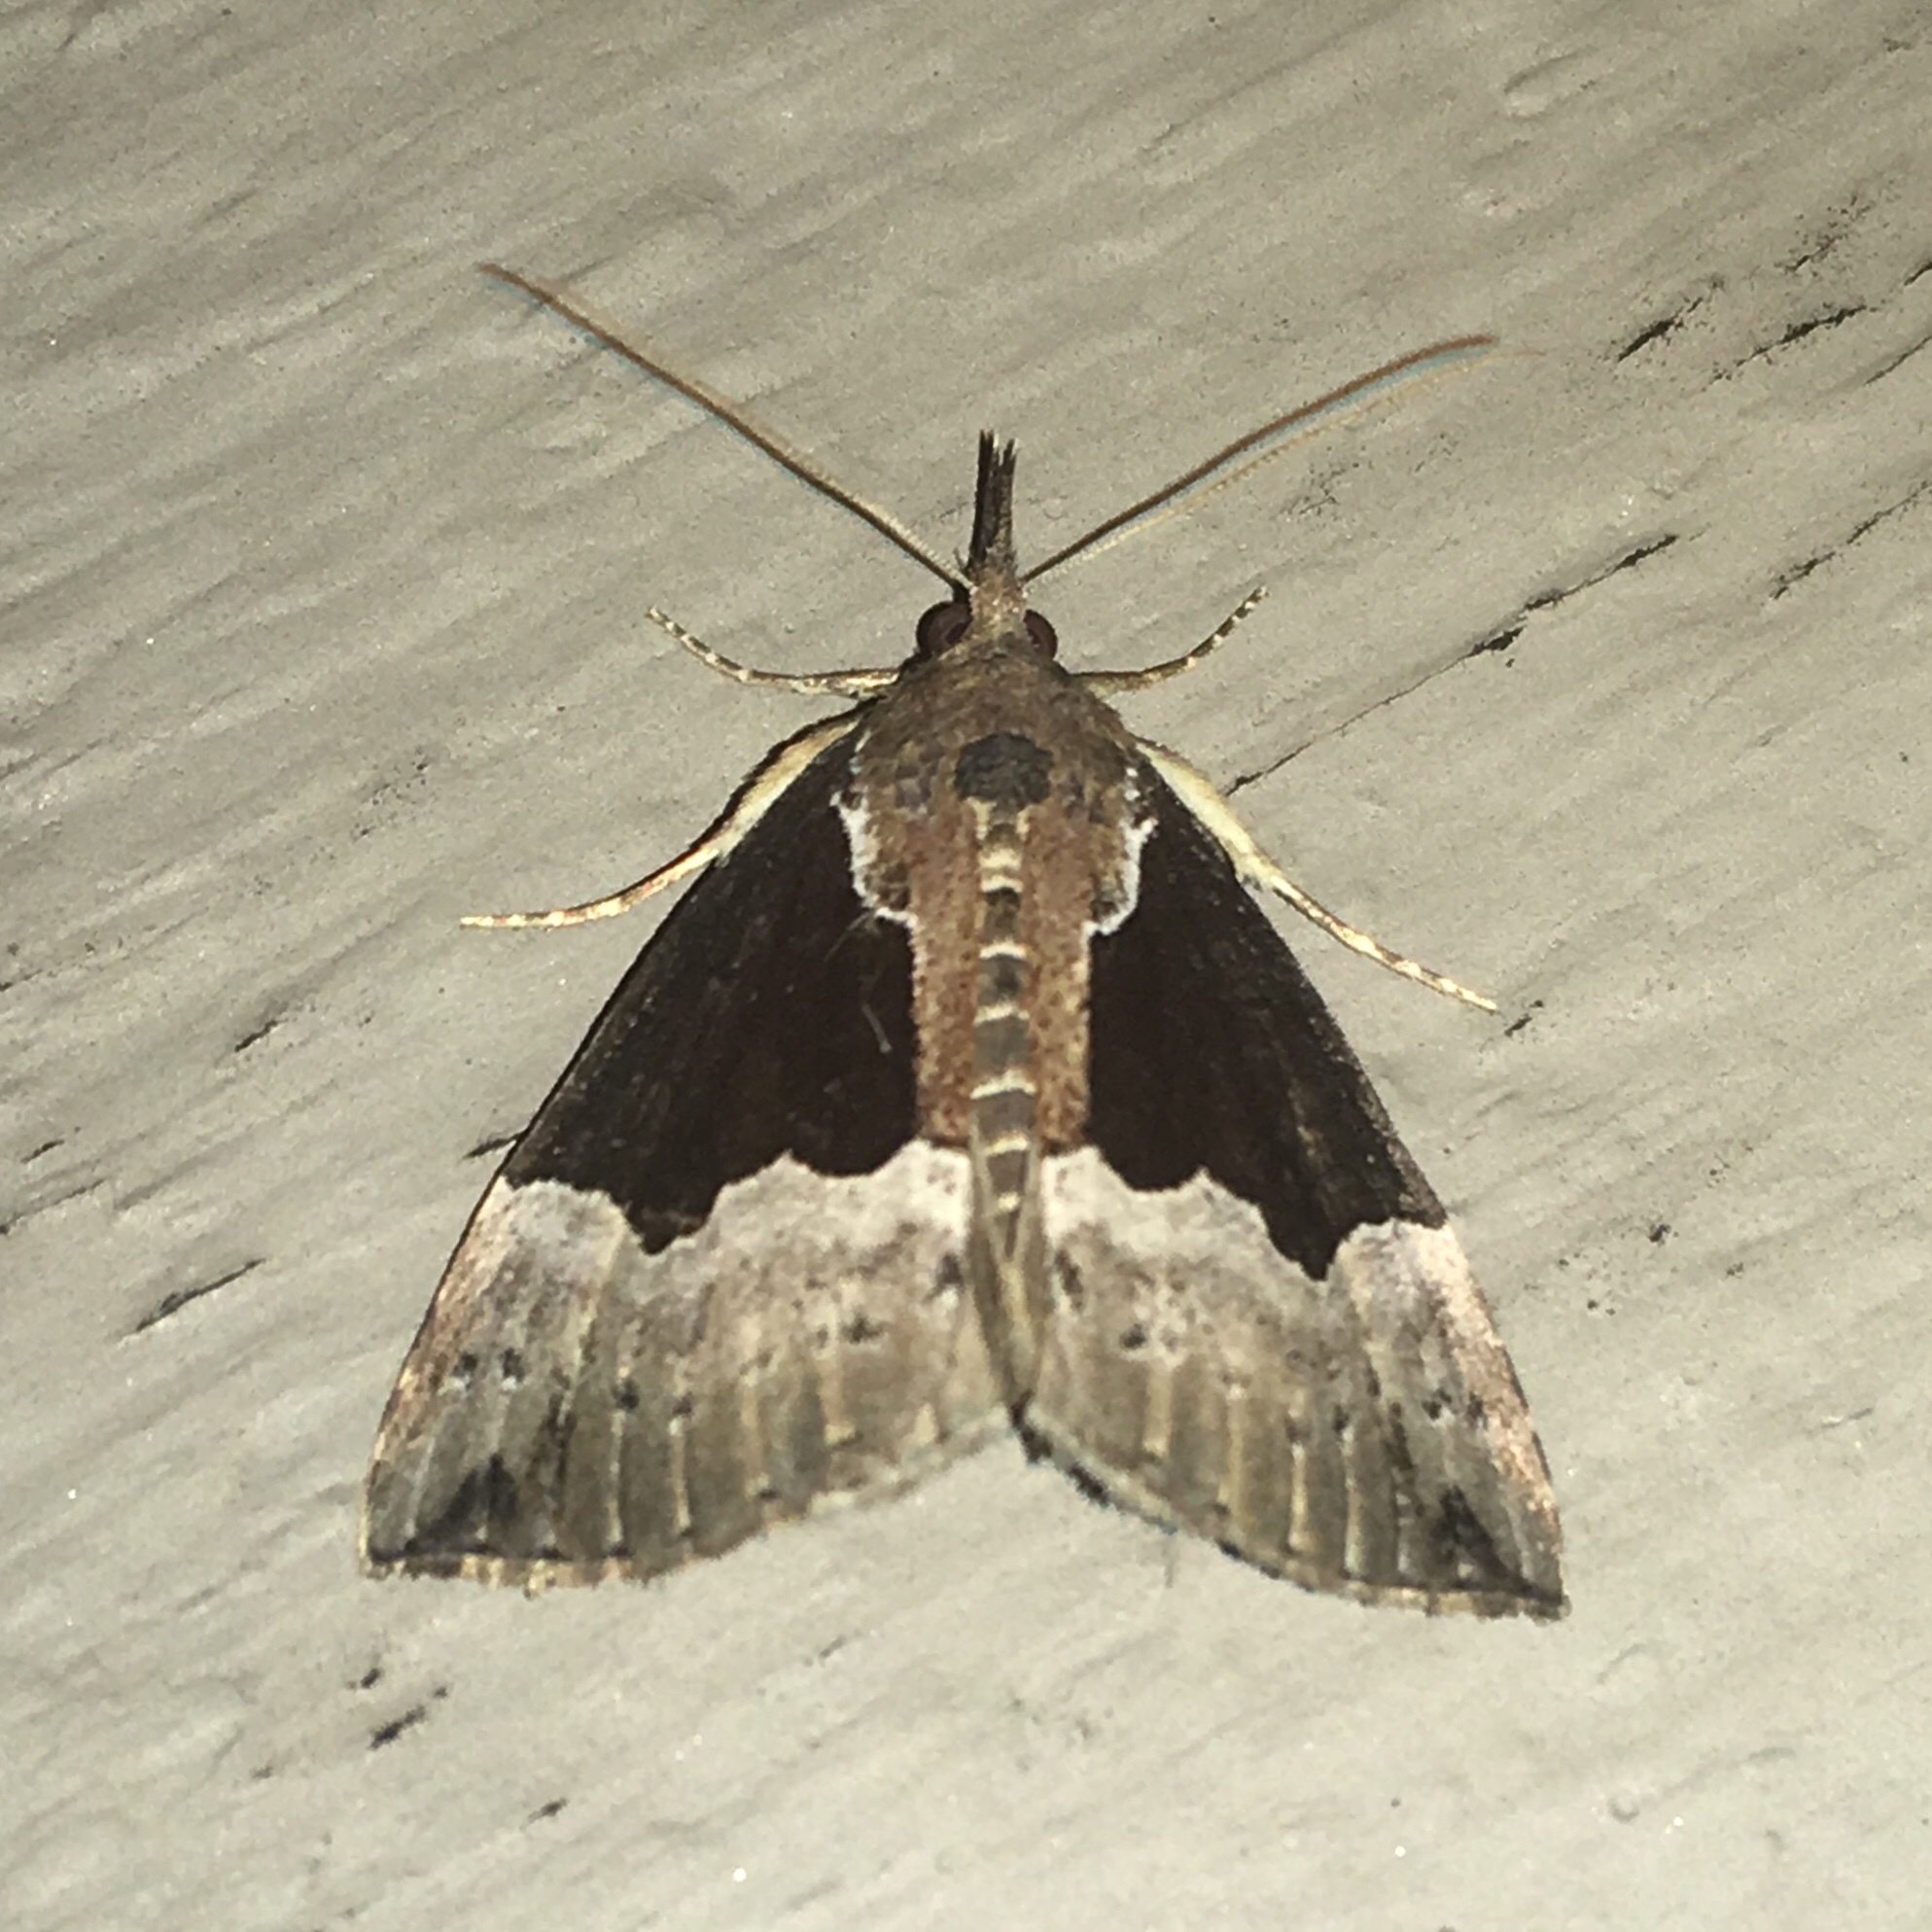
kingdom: Animalia
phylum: Arthropoda
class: Insecta
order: Lepidoptera
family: Erebidae
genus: Hypena
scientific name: Hypena bijugalis
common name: Dimorphic bomolocha moth
